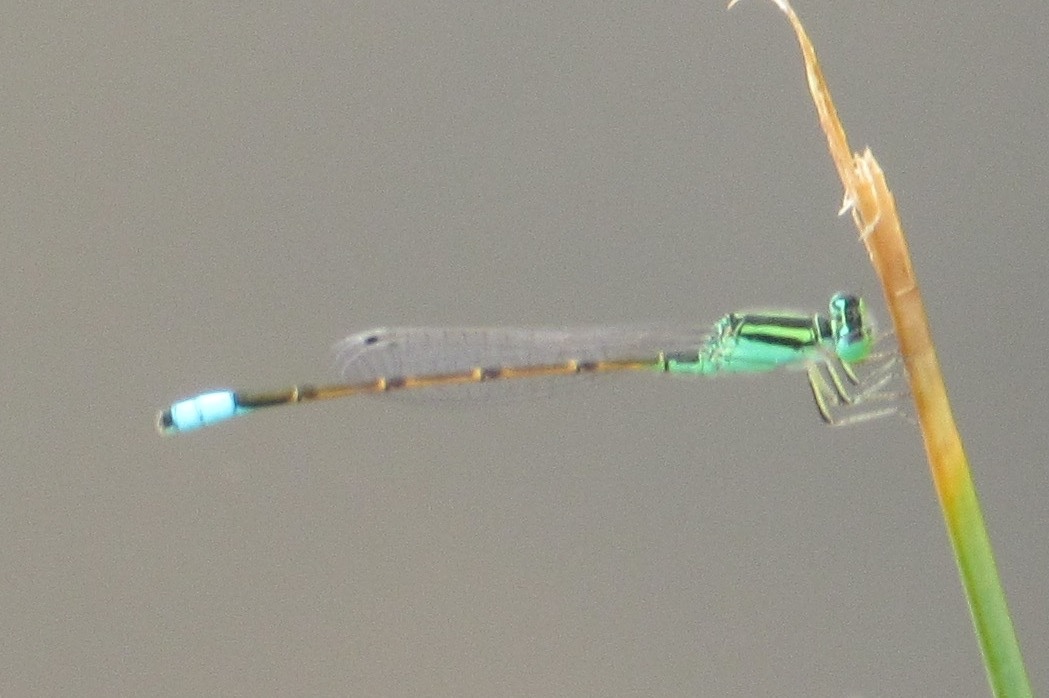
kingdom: Animalia
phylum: Arthropoda
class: Insecta
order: Odonata
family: Coenagrionidae
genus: Ischnura
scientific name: Ischnura barberi
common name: Desert forktail
